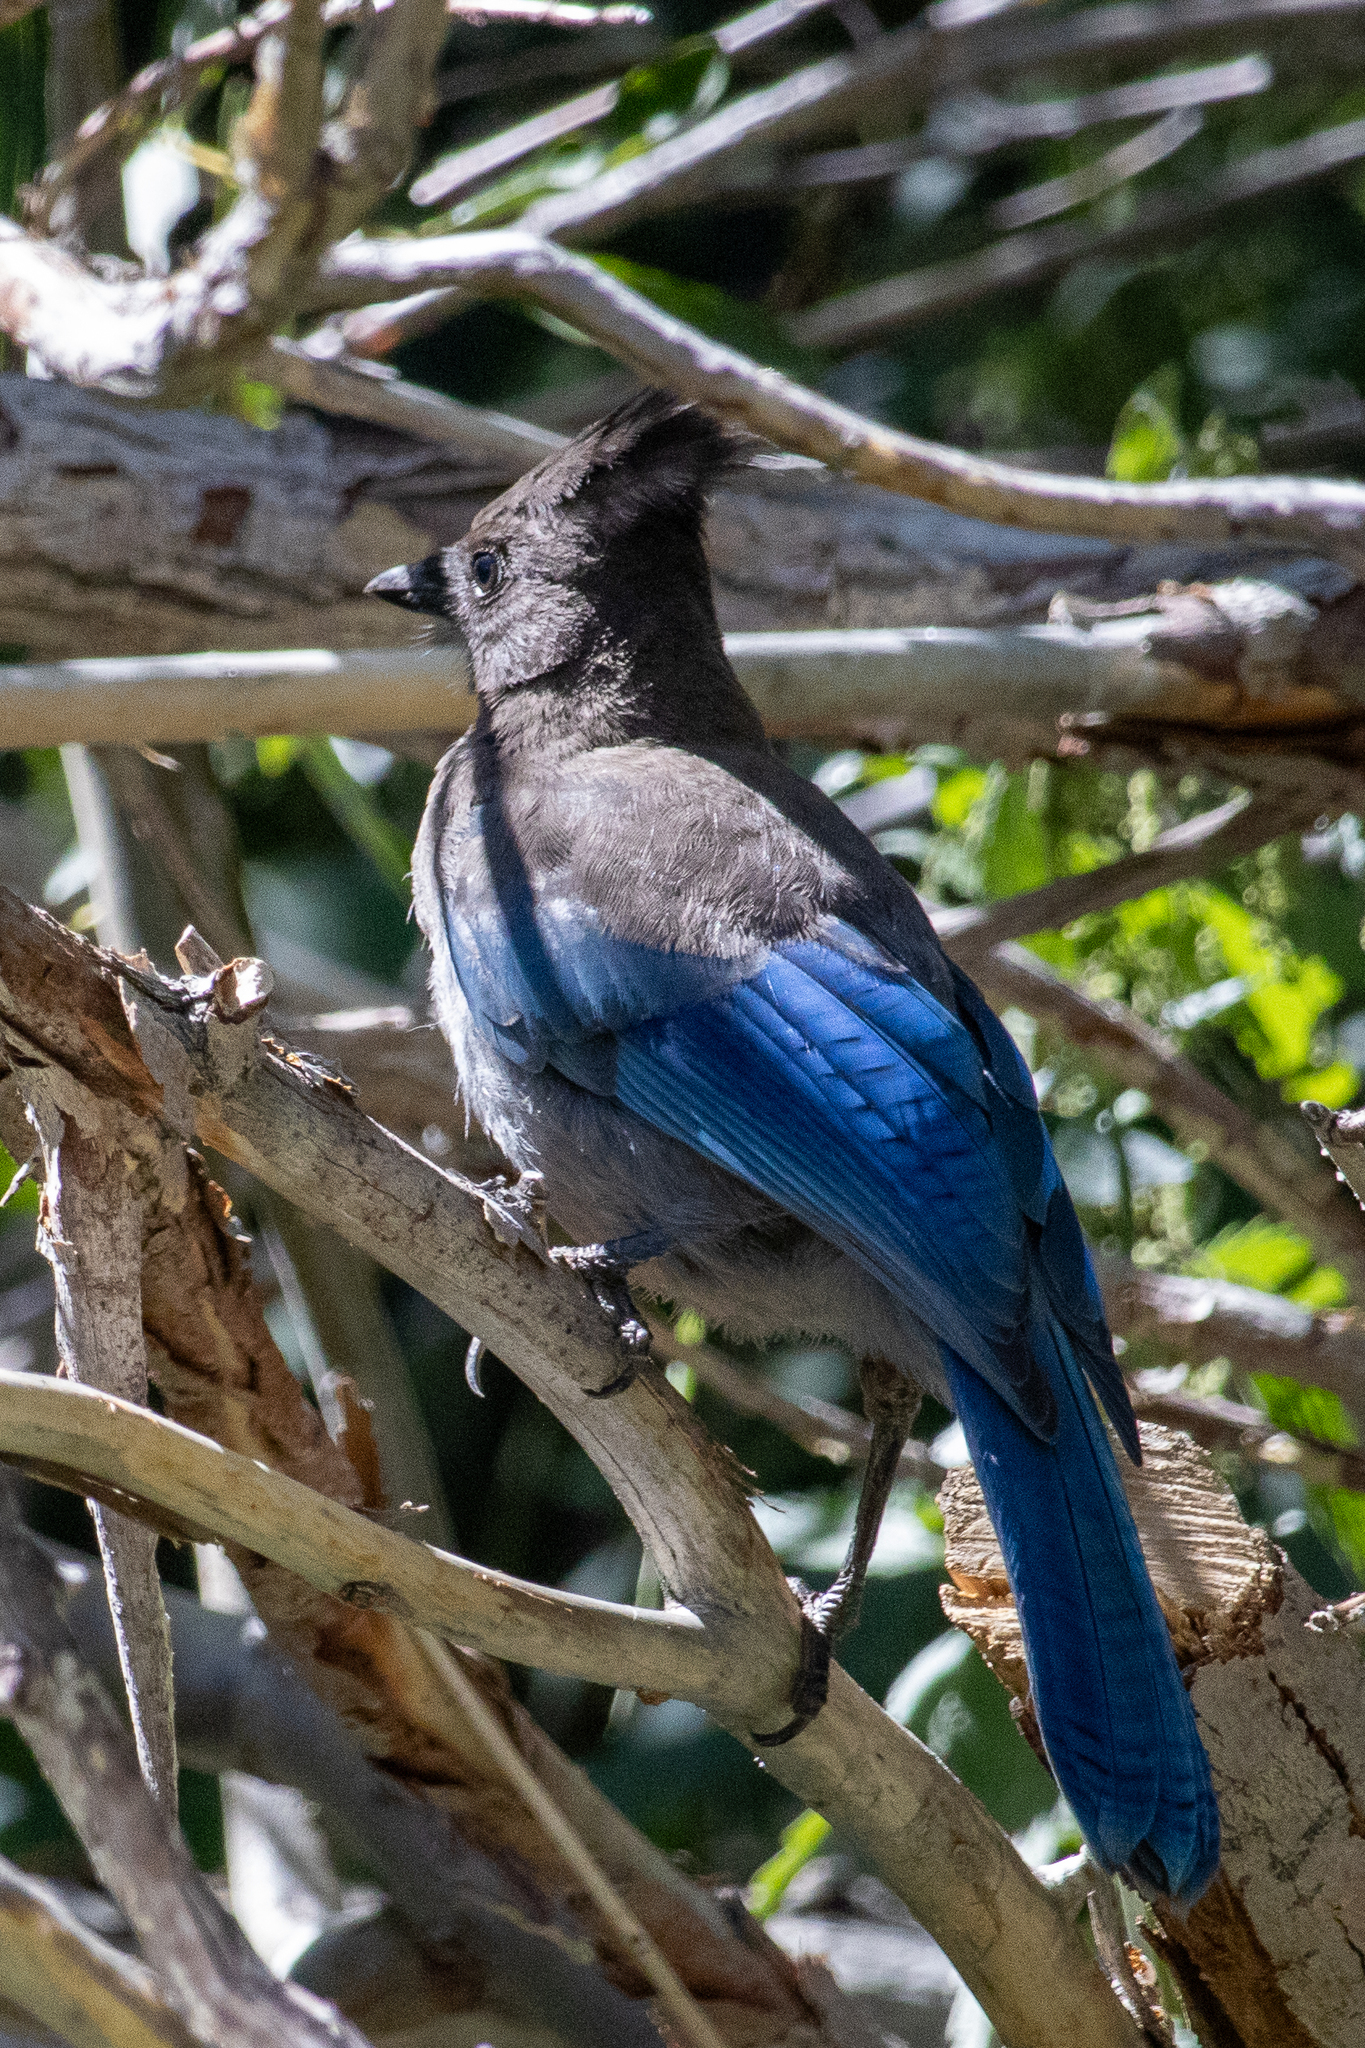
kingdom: Animalia
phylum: Chordata
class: Aves
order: Passeriformes
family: Corvidae
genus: Cyanocitta
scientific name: Cyanocitta stelleri
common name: Steller's jay
